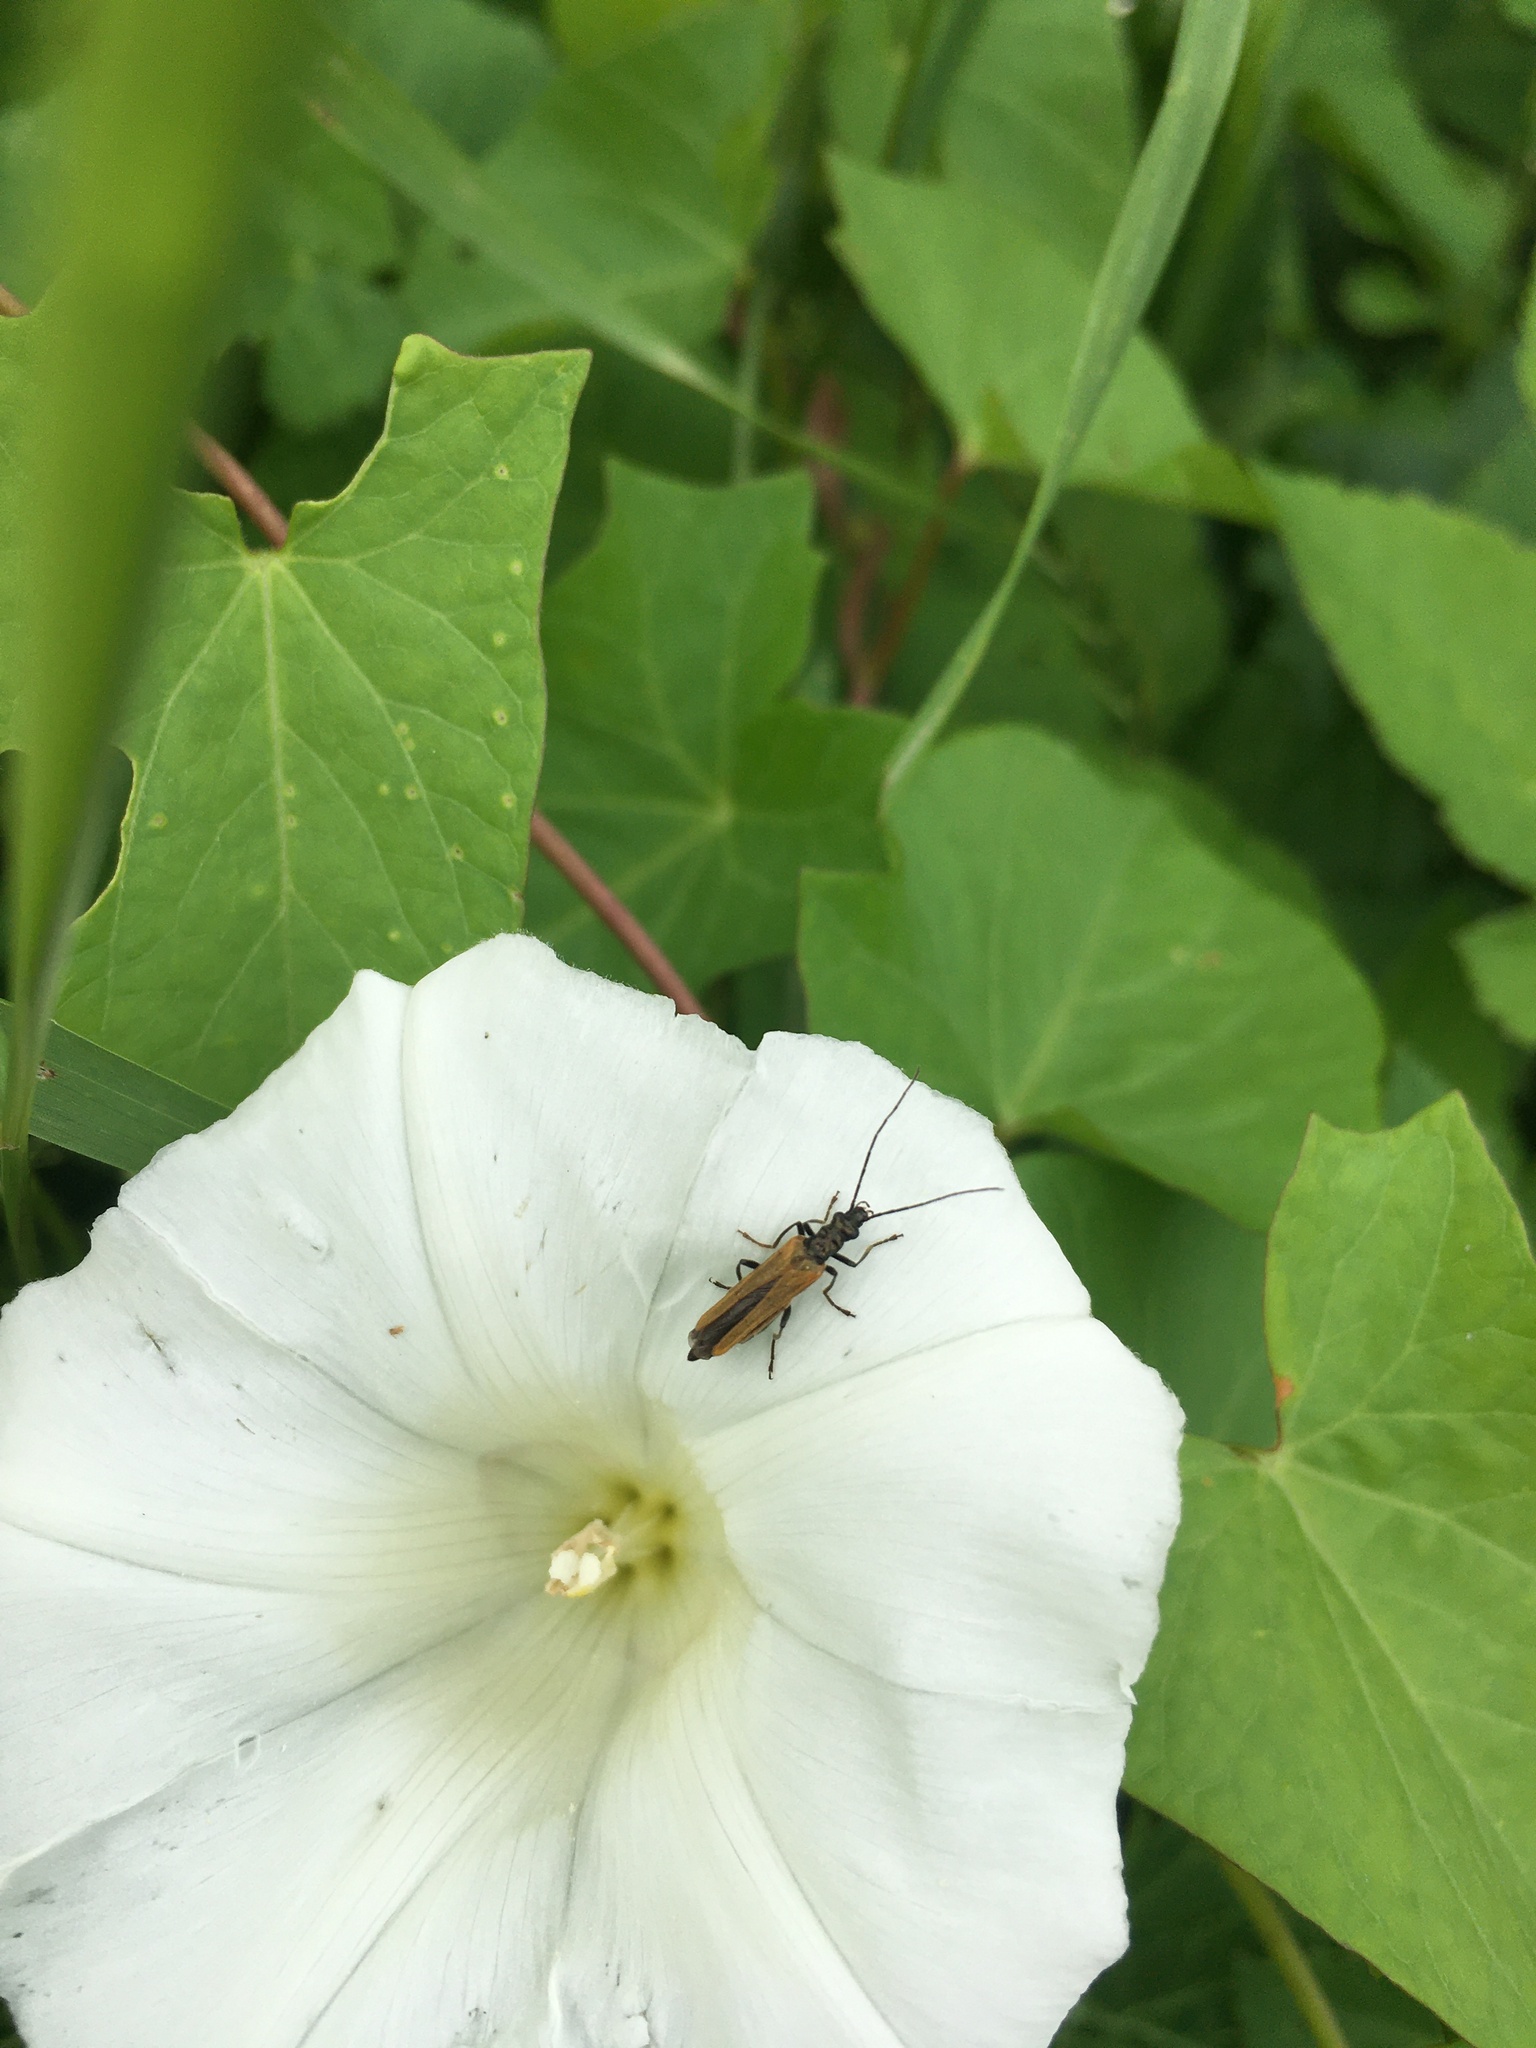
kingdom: Animalia
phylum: Arthropoda
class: Insecta
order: Coleoptera
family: Oedemeridae
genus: Oedemera
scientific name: Oedemera femorata
